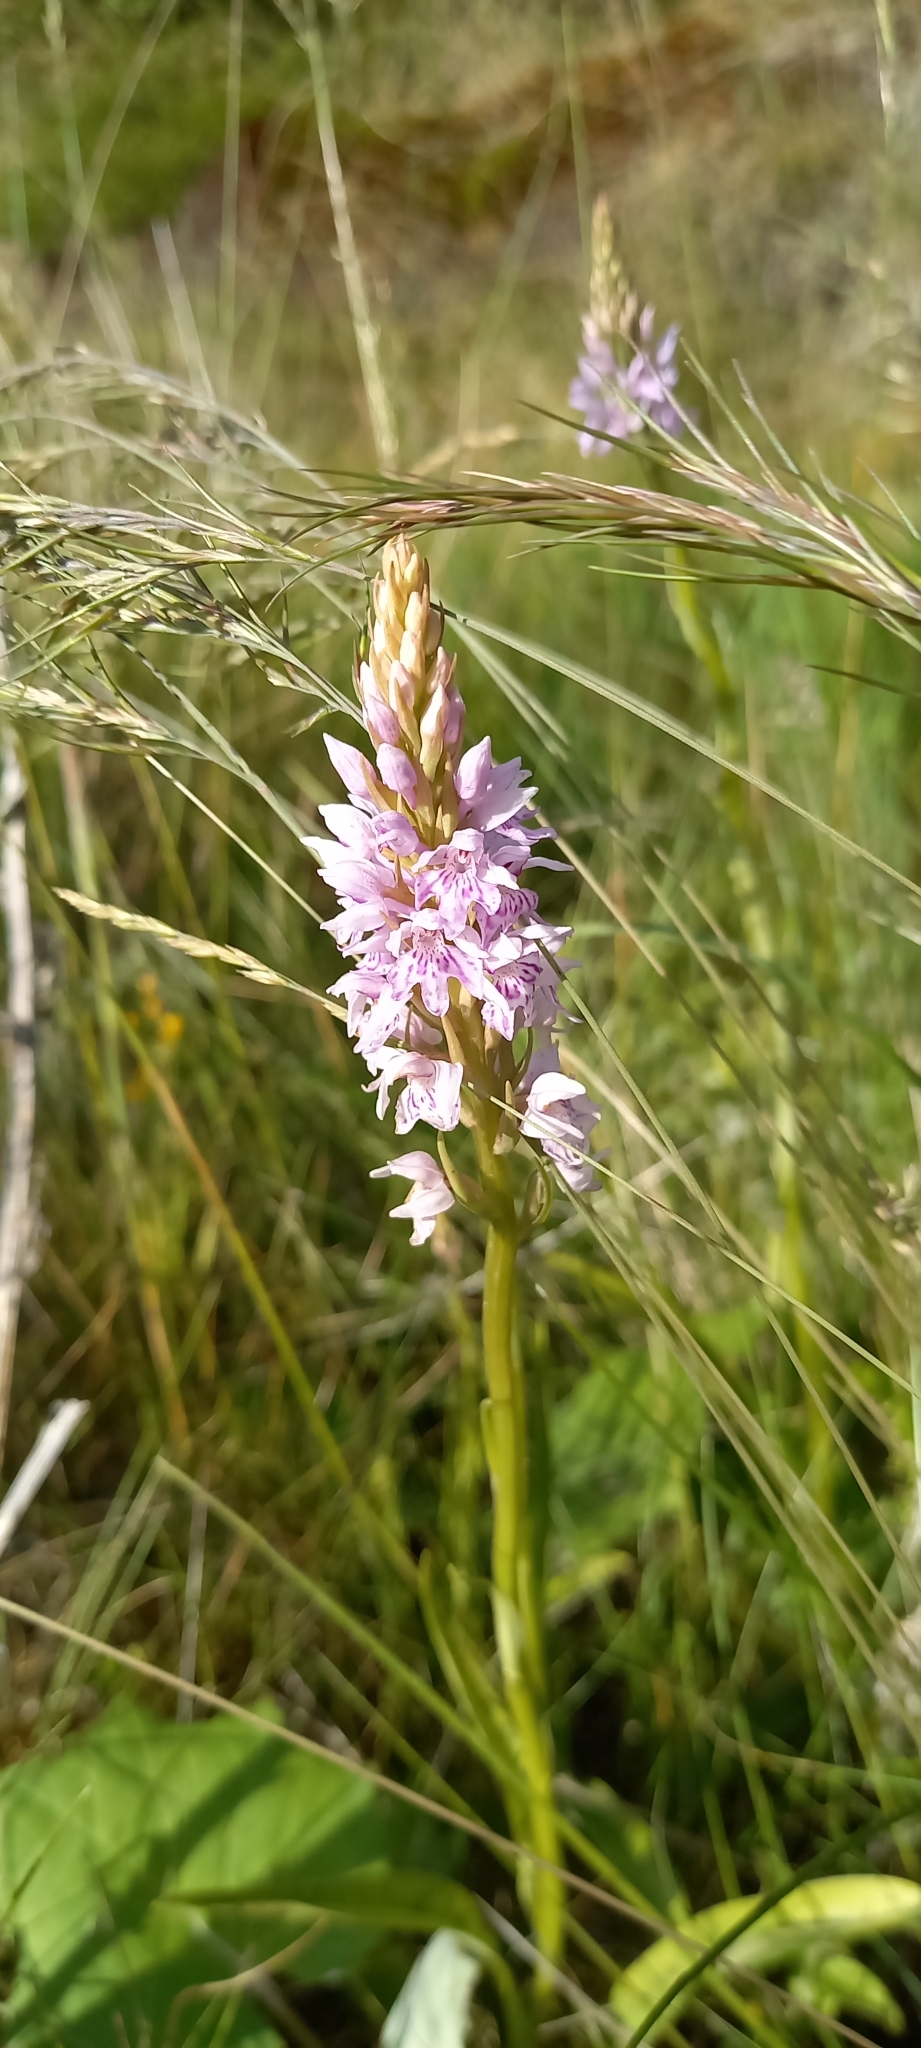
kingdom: Plantae
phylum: Tracheophyta
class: Liliopsida
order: Asparagales
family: Orchidaceae
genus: Dactylorhiza
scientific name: Dactylorhiza maculata
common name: Heath spotted-orchid
